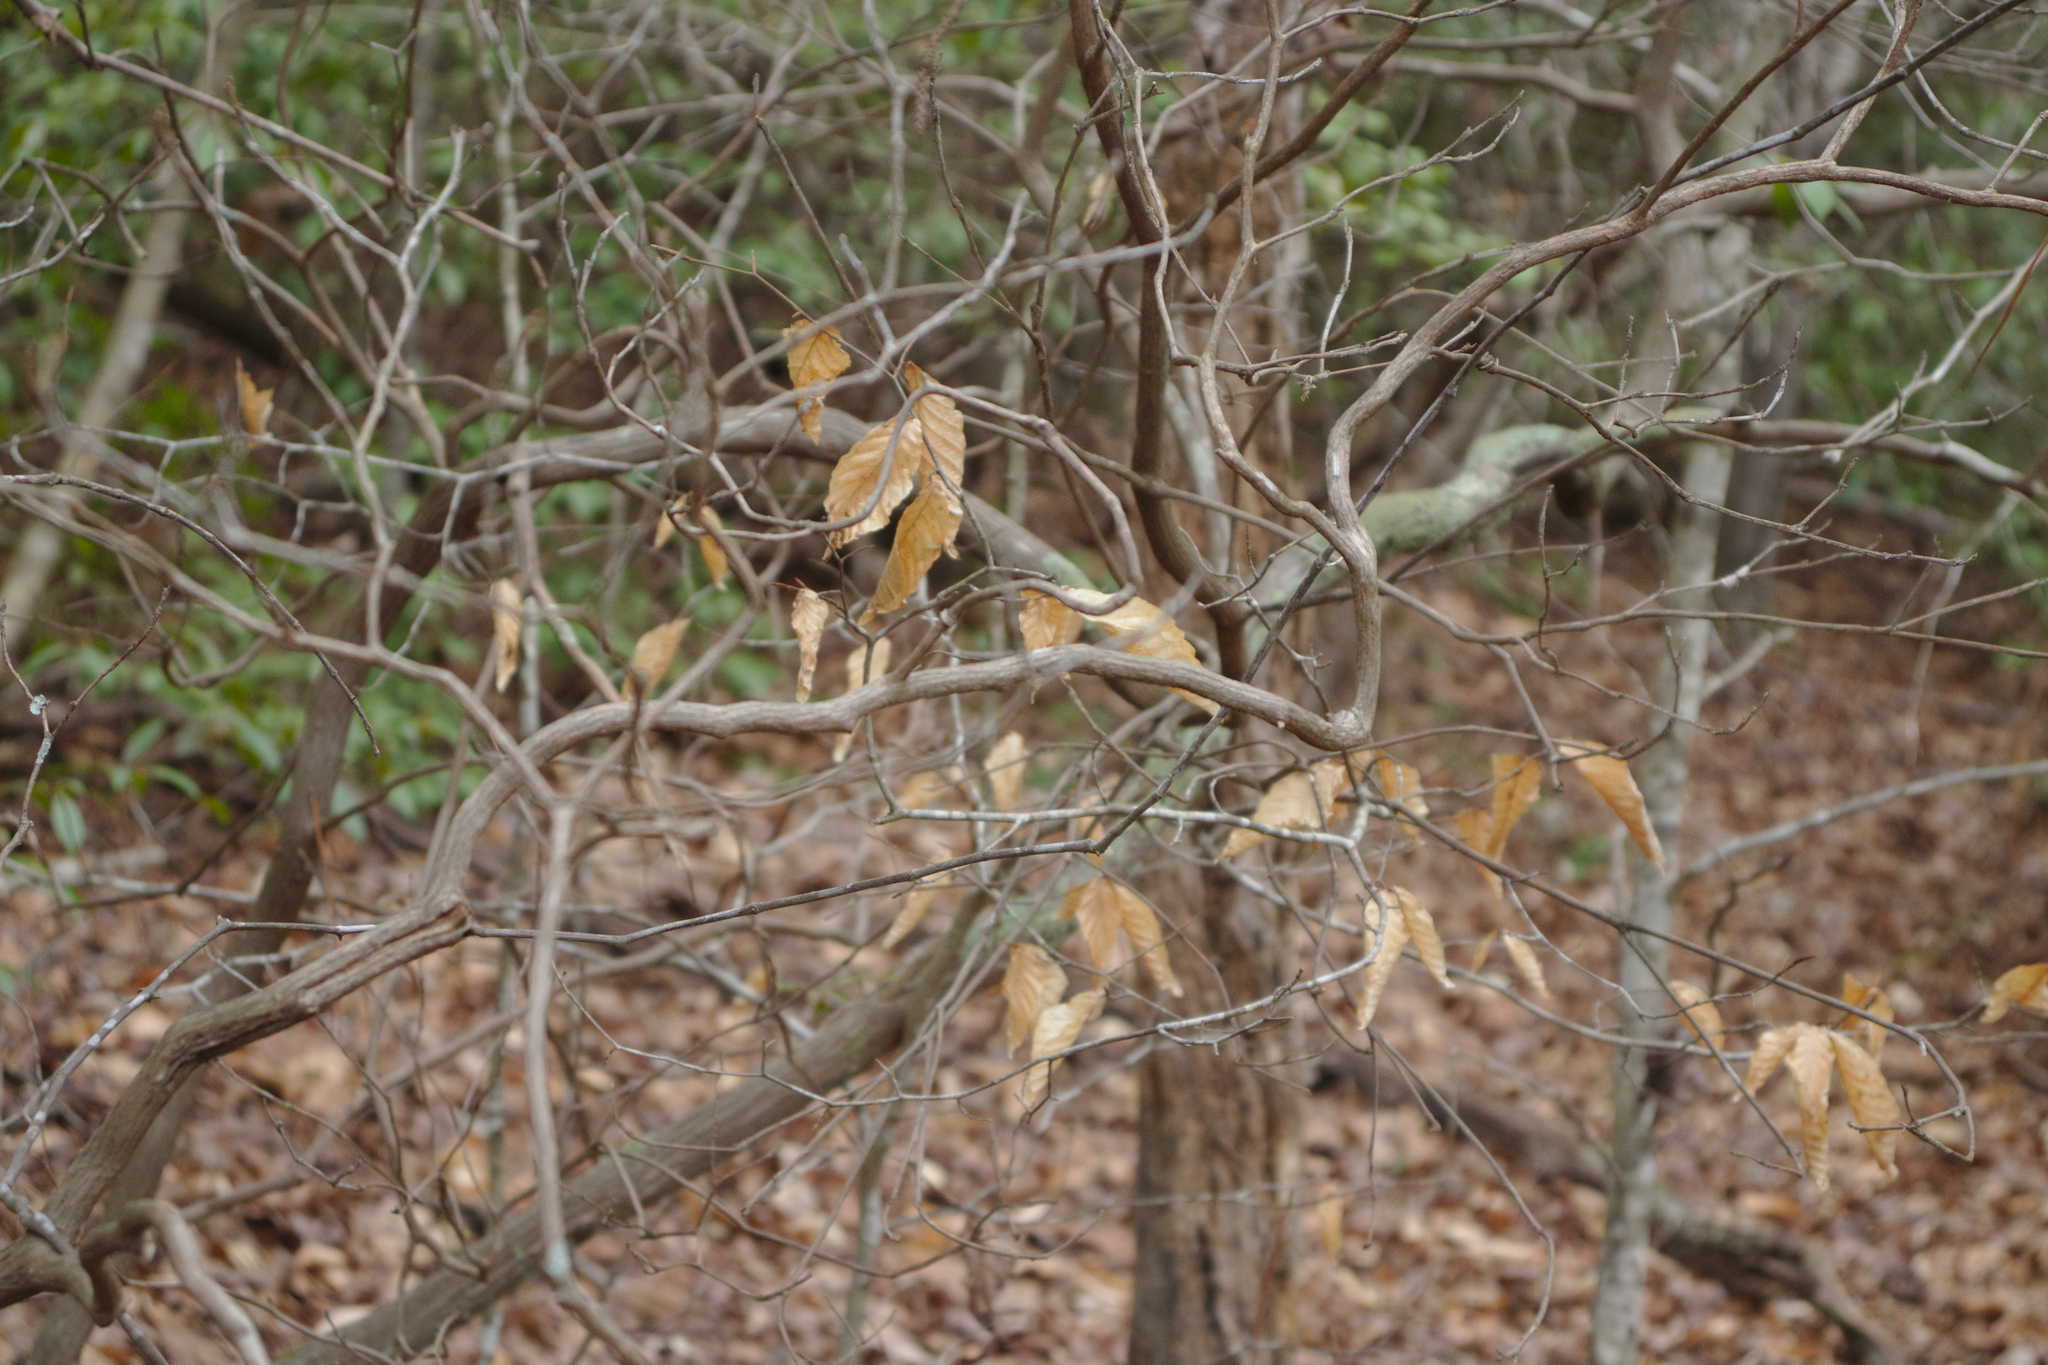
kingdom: Plantae
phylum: Tracheophyta
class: Magnoliopsida
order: Fagales
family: Fagaceae
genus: Fagus
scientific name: Fagus grandifolia
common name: American beech
